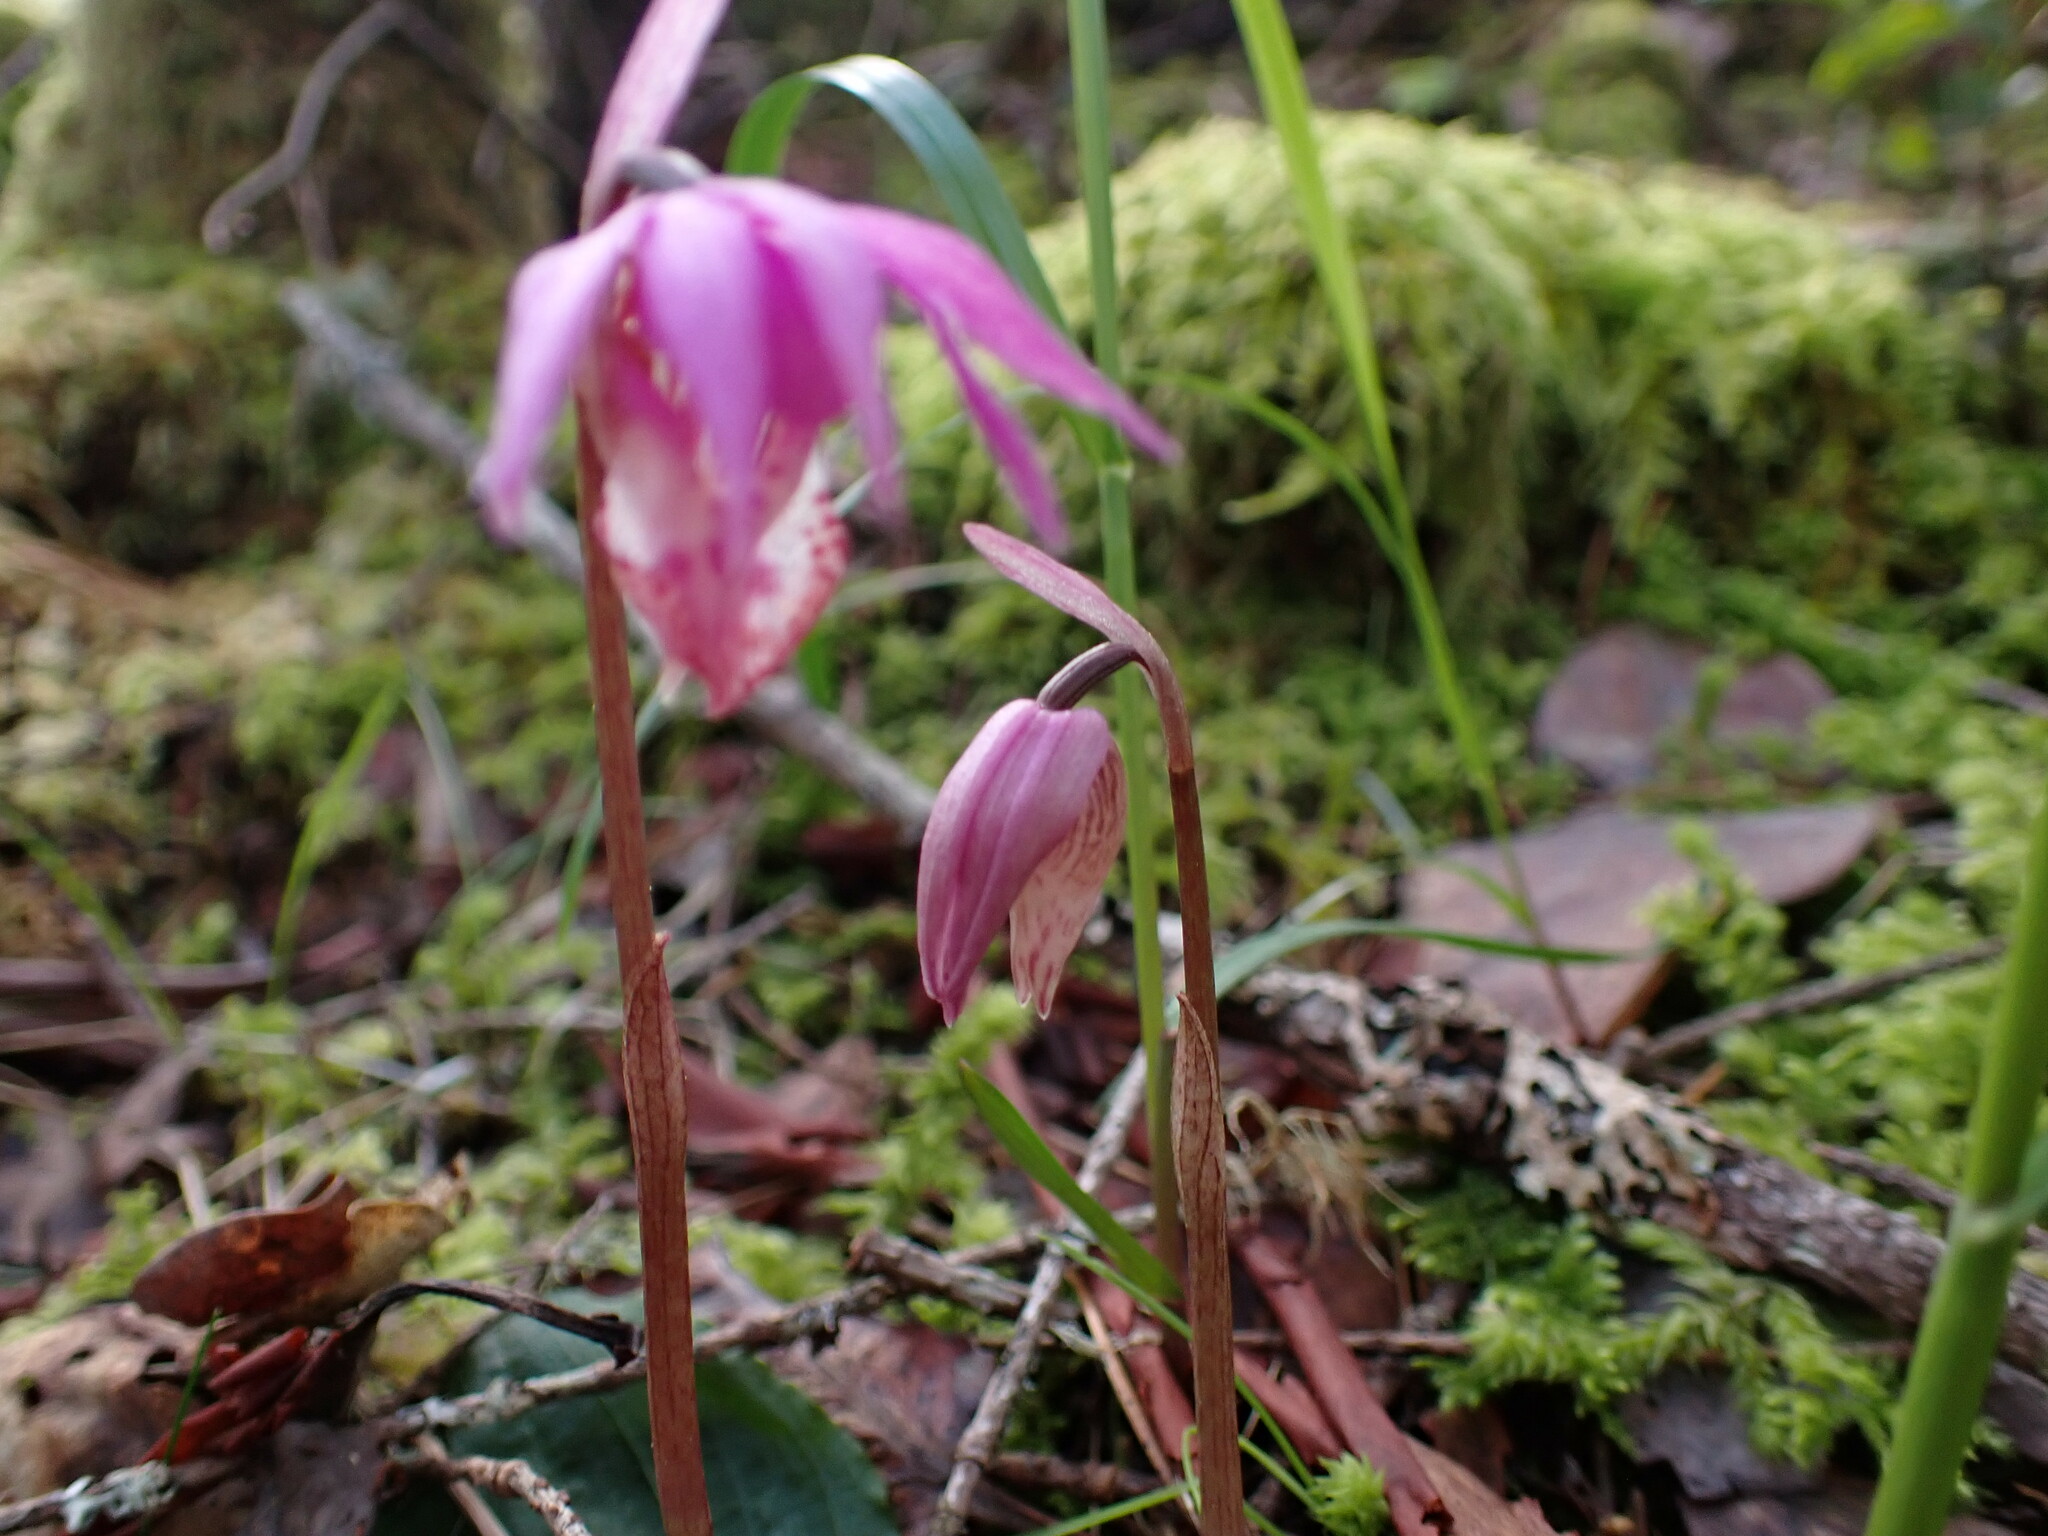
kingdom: Plantae
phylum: Tracheophyta
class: Liliopsida
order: Asparagales
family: Orchidaceae
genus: Calypso
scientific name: Calypso bulbosa
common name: Calypso
